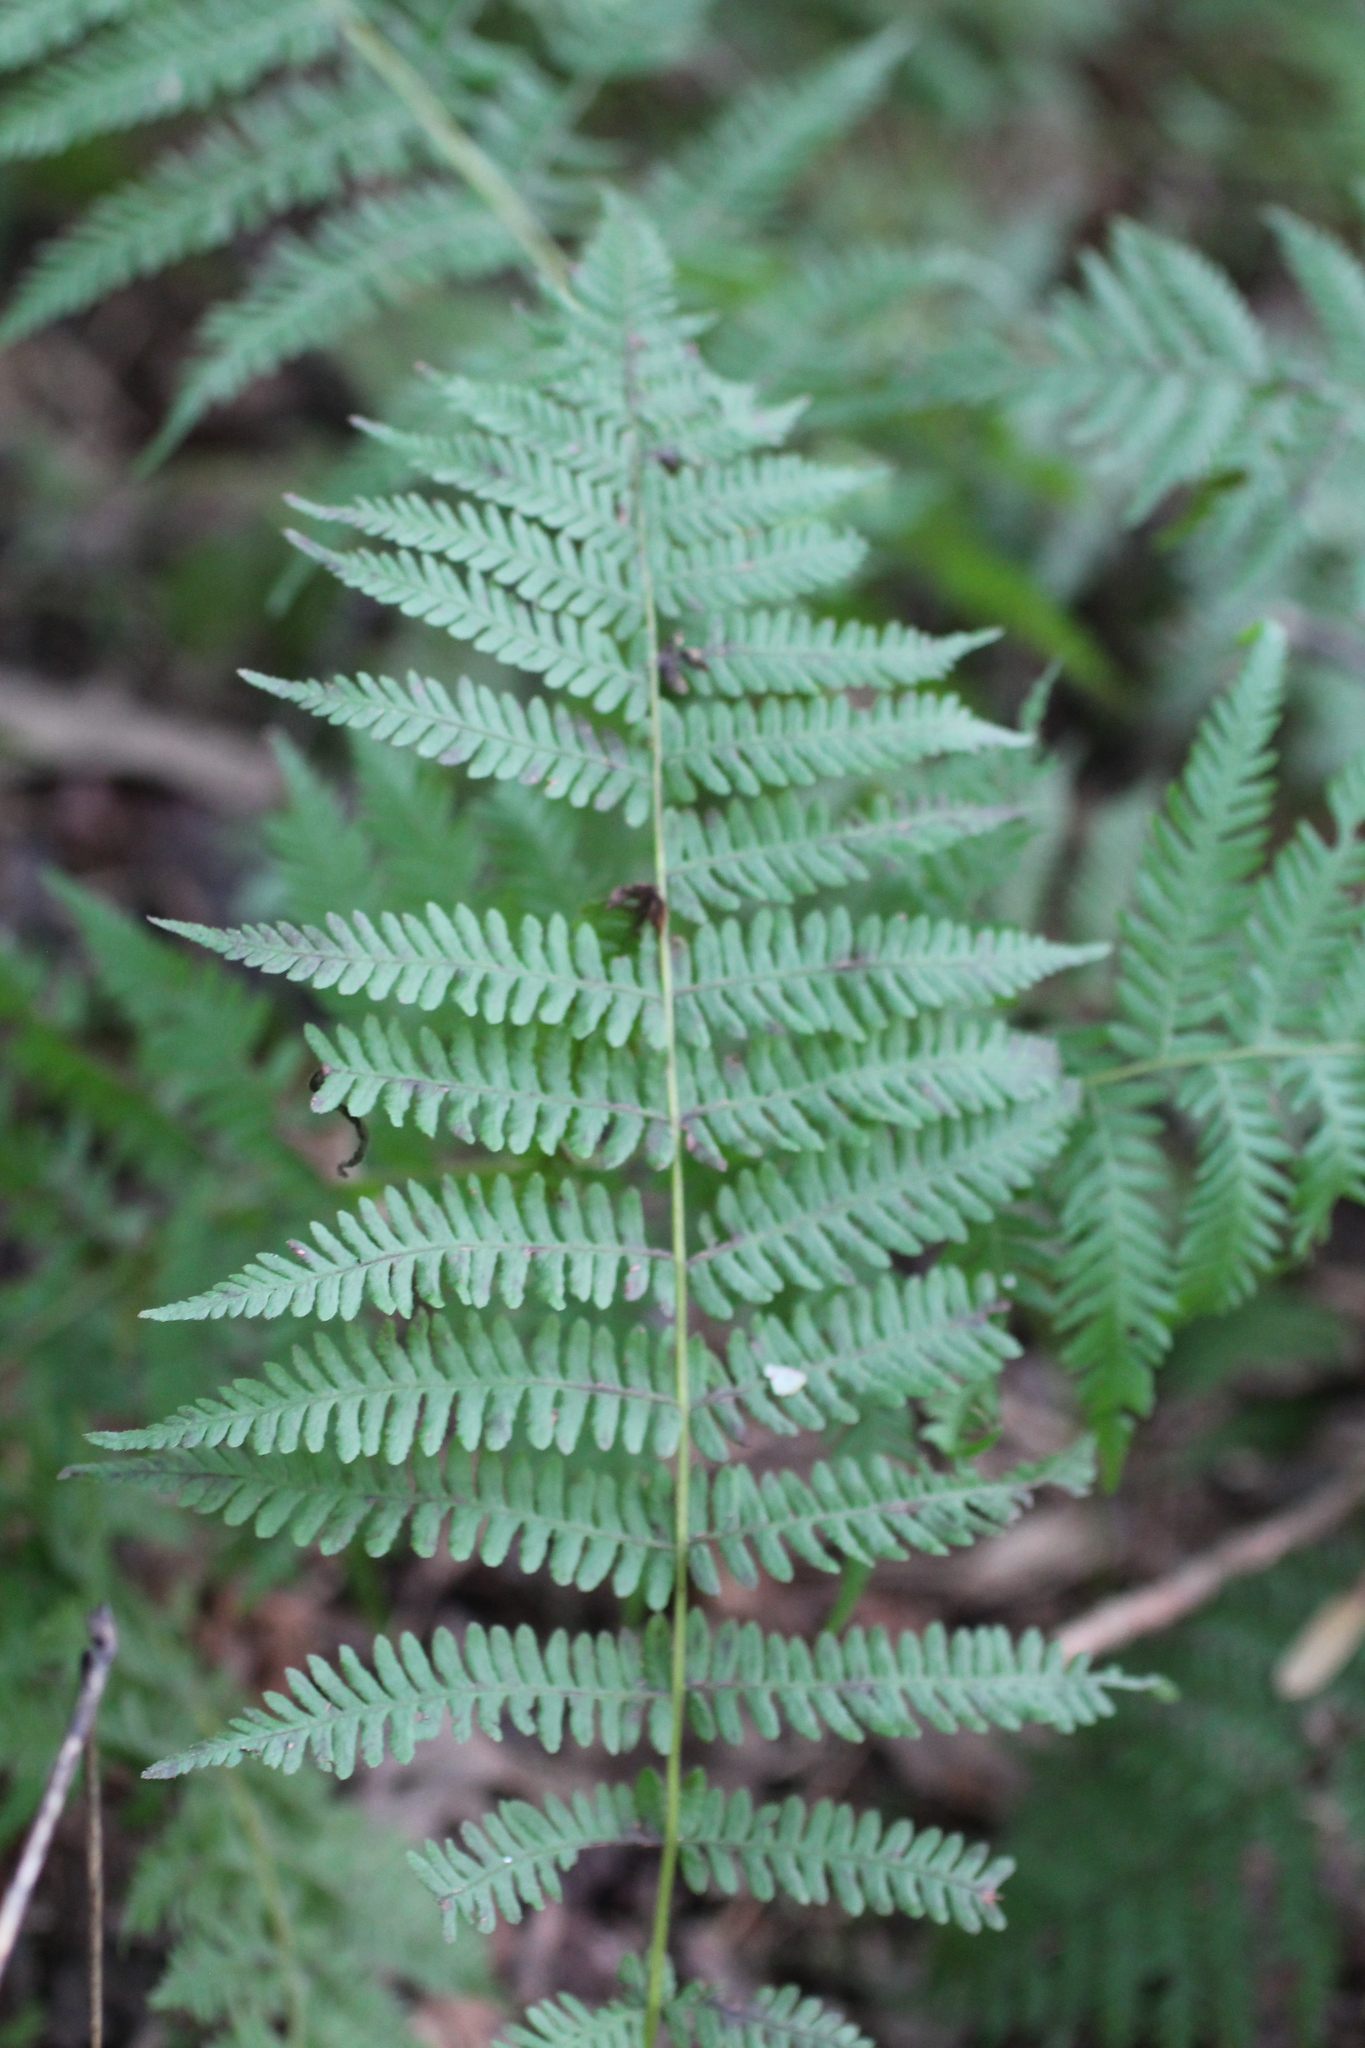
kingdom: Plantae
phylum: Tracheophyta
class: Polypodiopsida
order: Polypodiales
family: Thelypteridaceae
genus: Amauropelta
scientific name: Amauropelta noveboracensis
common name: New york fern
